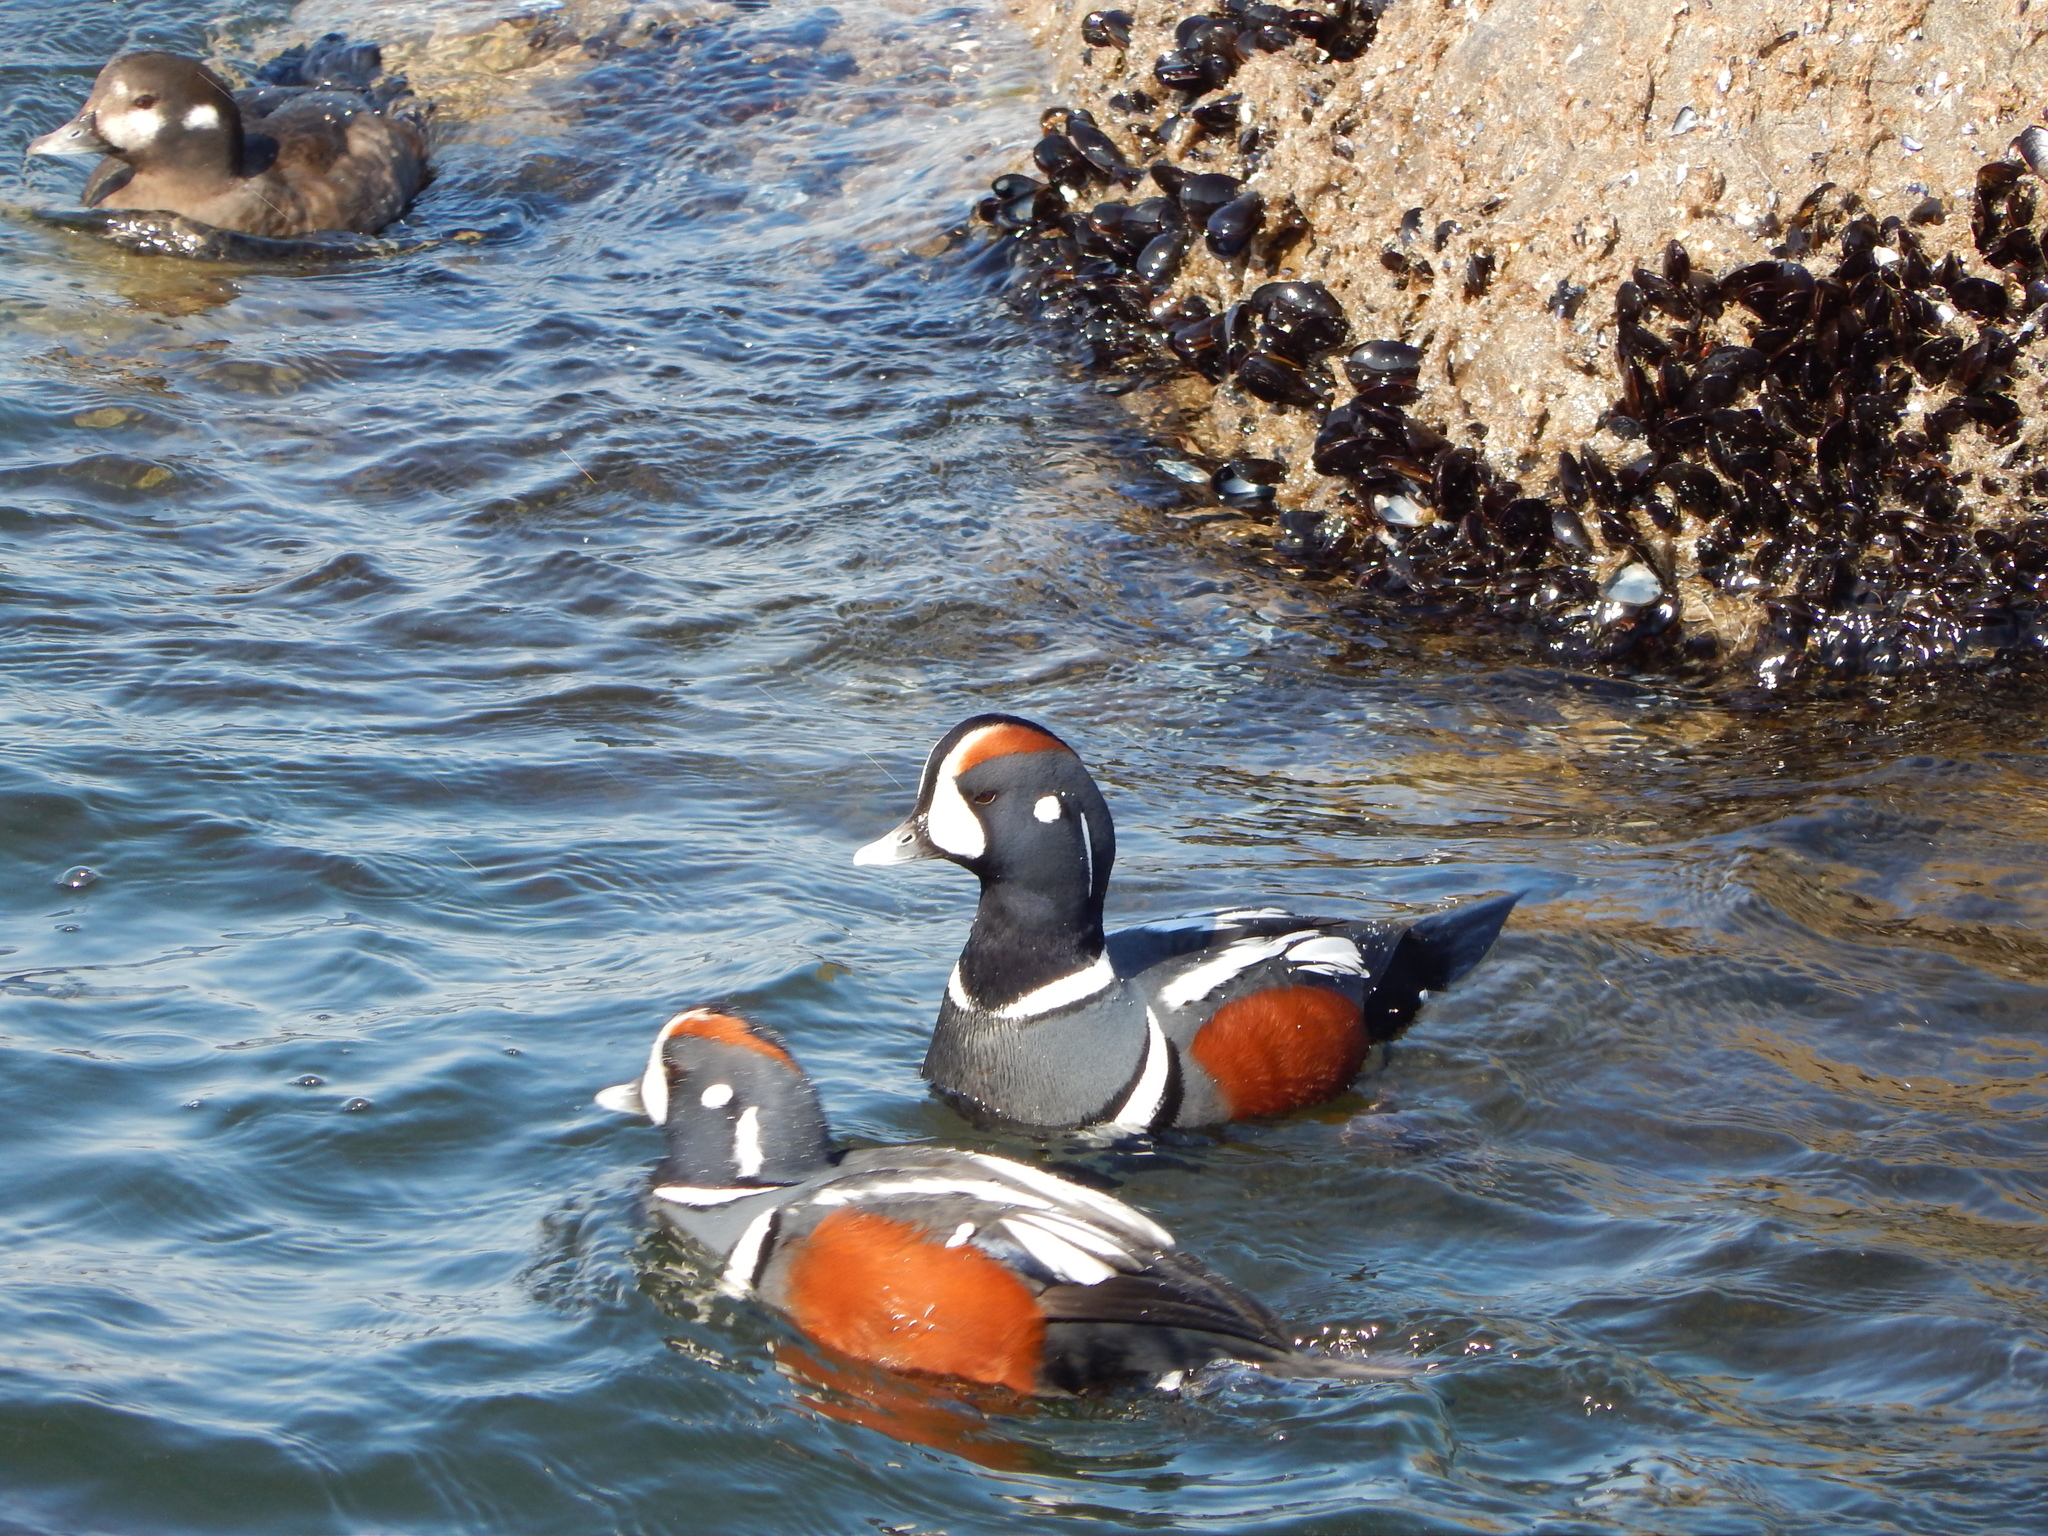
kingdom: Animalia
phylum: Chordata
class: Aves
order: Anseriformes
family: Anatidae
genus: Histrionicus
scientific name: Histrionicus histrionicus
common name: Harlequin duck
